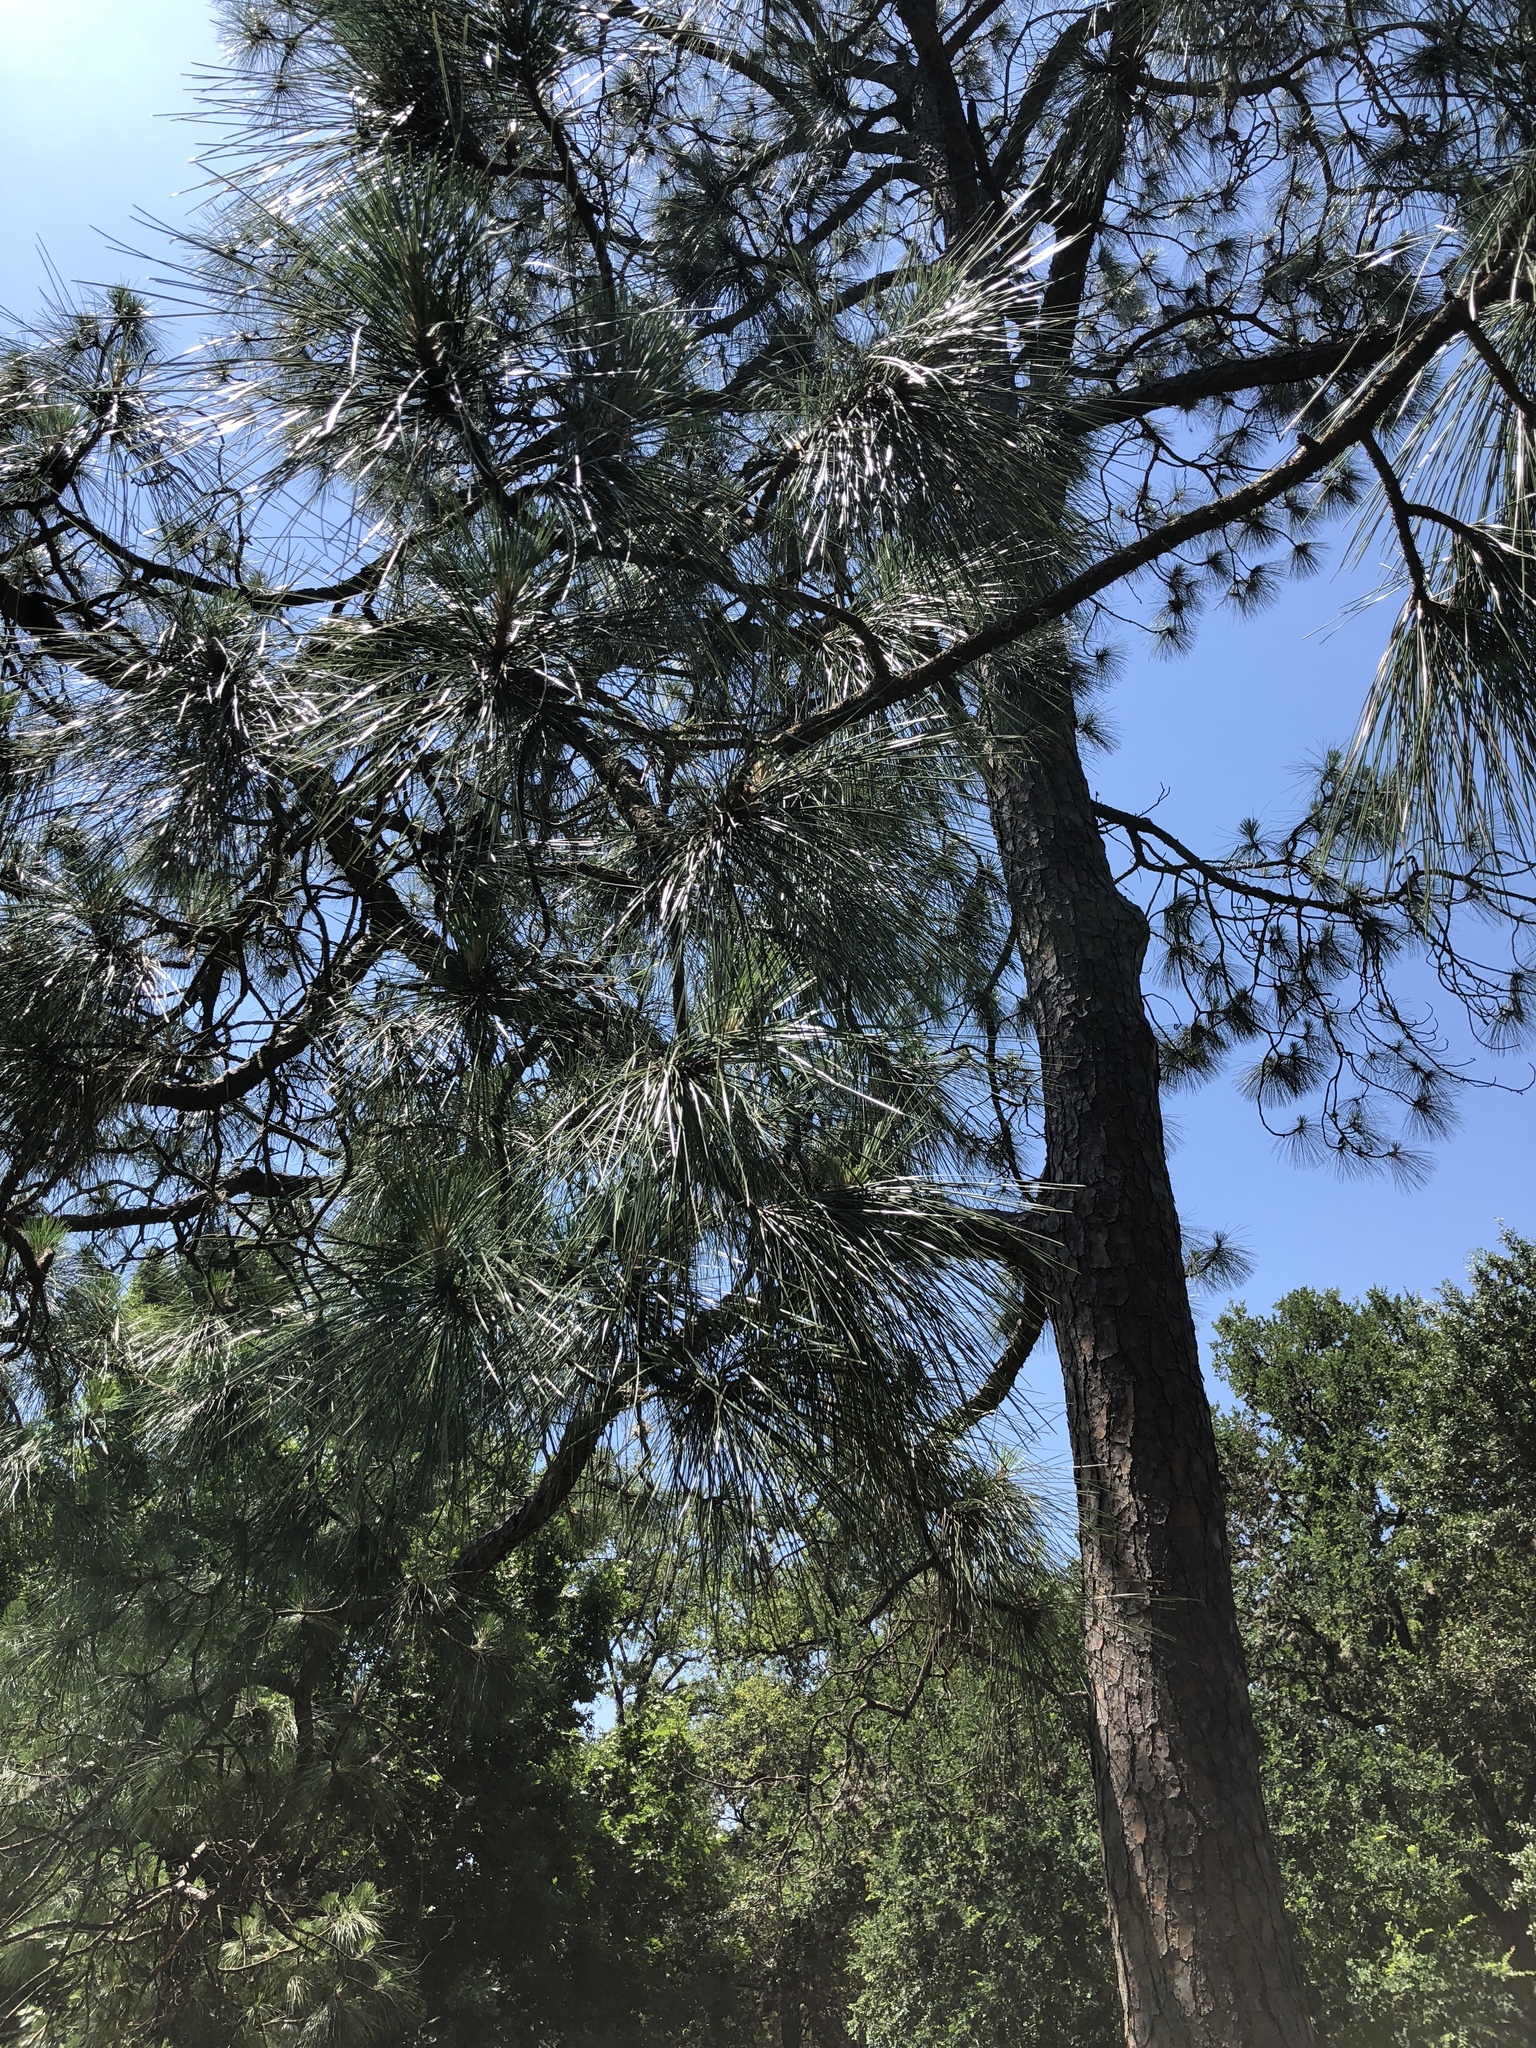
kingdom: Plantae
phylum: Tracheophyta
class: Pinopsida
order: Pinales
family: Pinaceae
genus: Pinus
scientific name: Pinus taeda
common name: Loblolly pine
